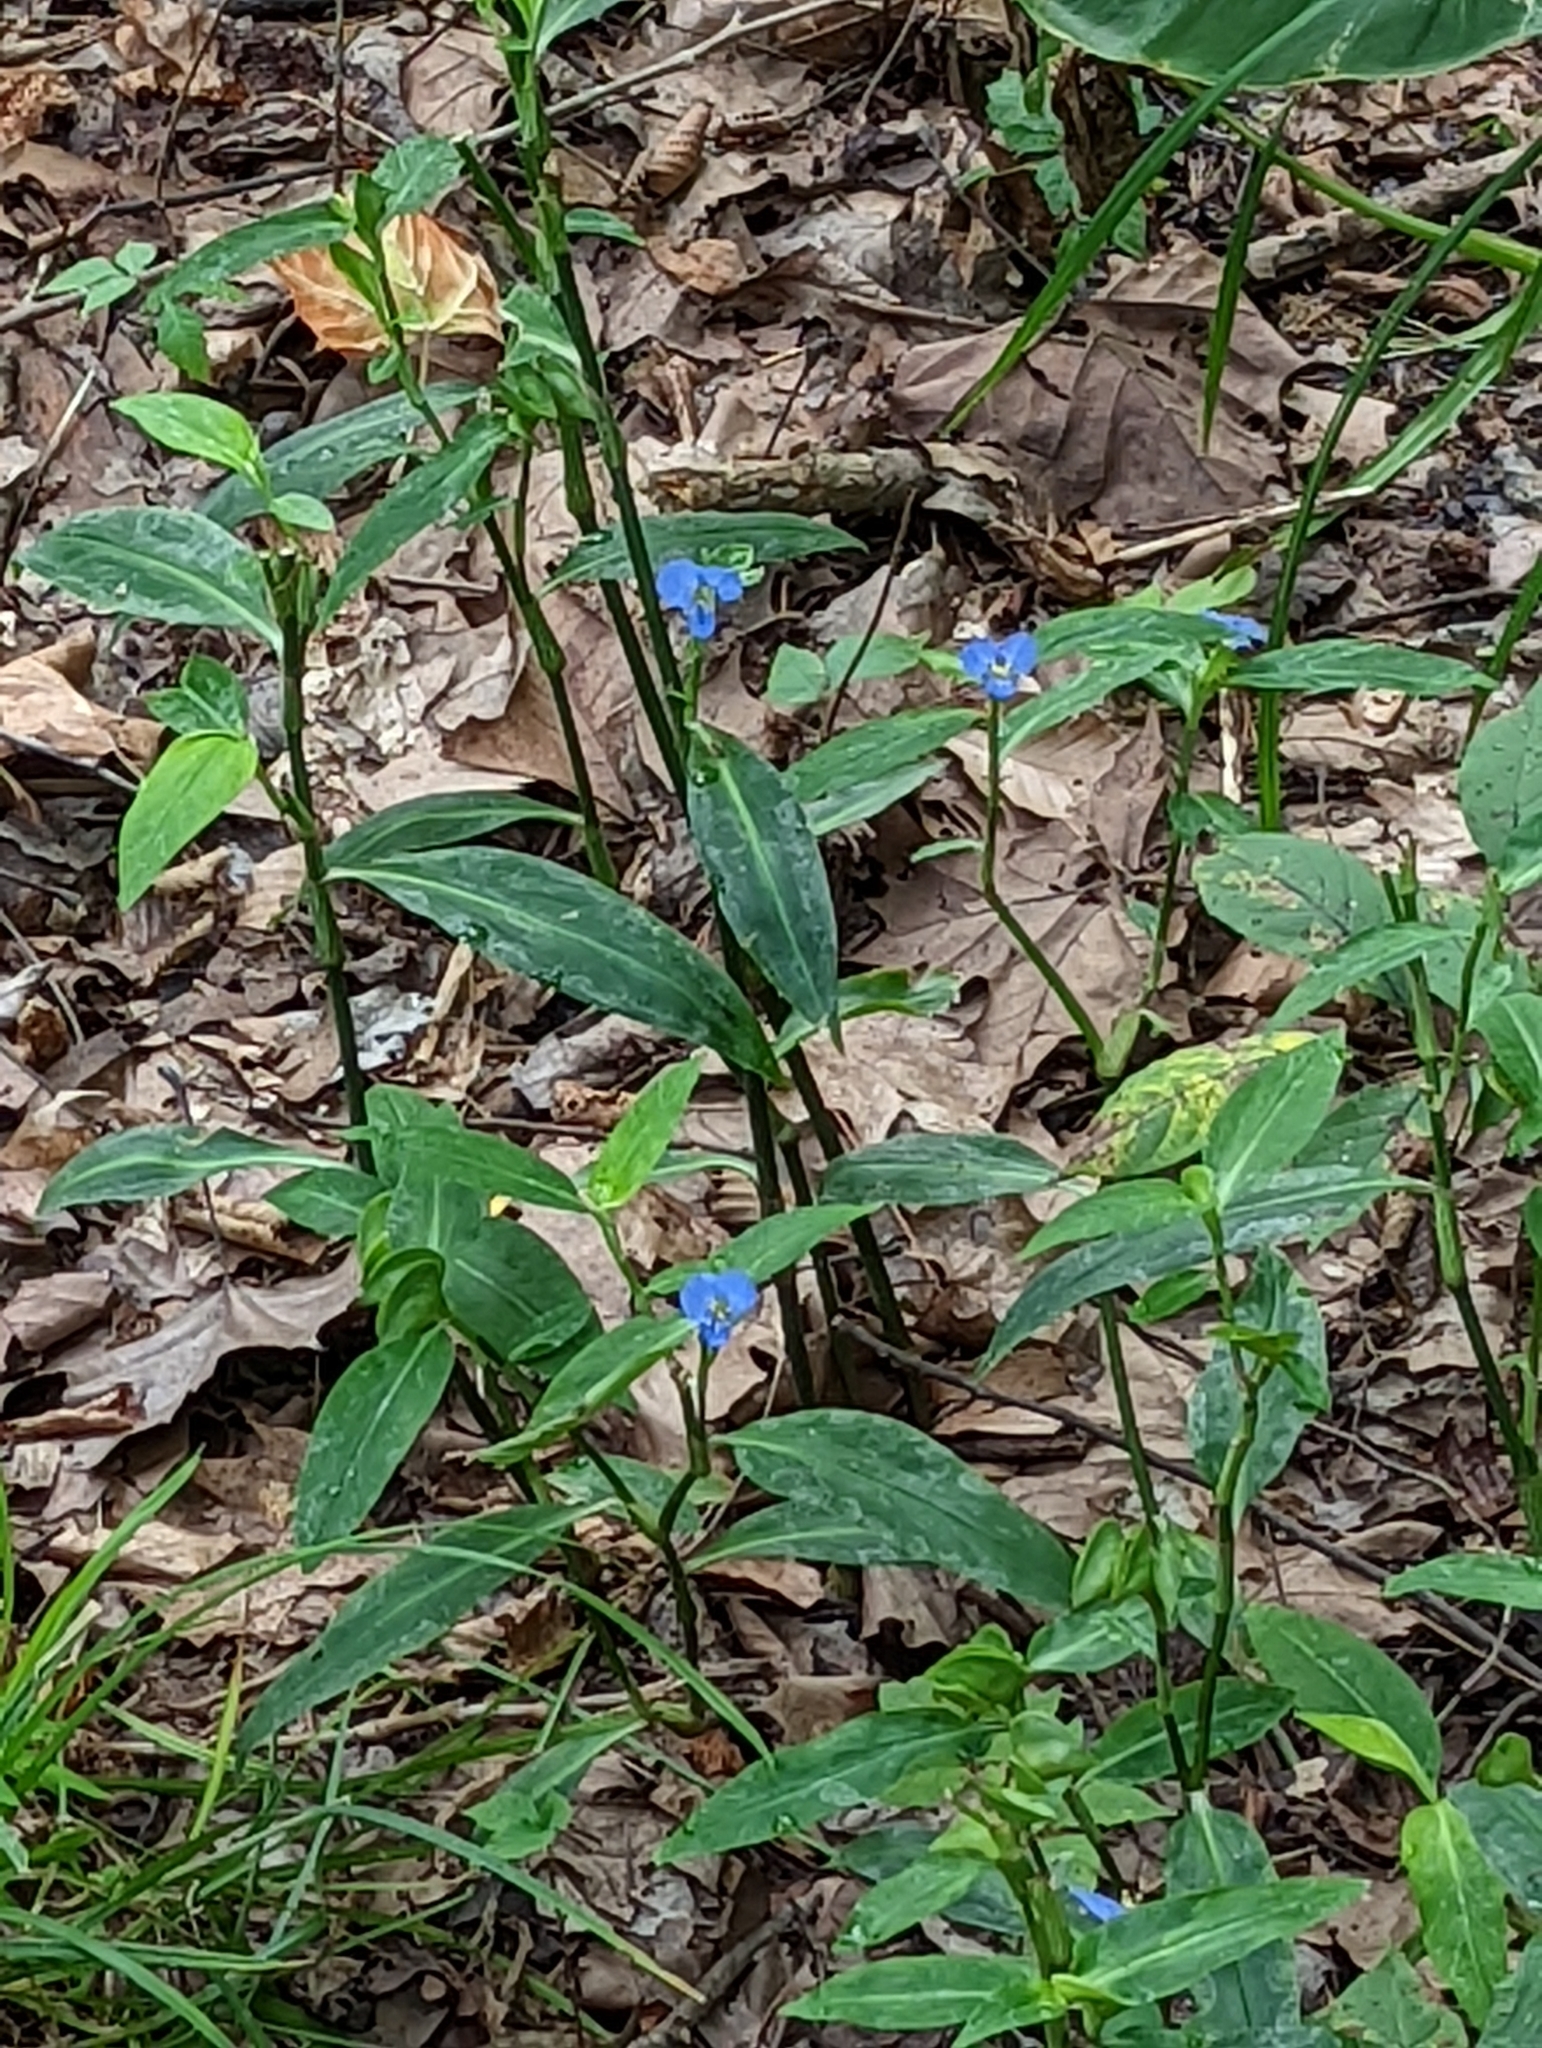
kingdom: Plantae
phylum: Tracheophyta
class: Liliopsida
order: Commelinales
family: Commelinaceae
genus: Commelina
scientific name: Commelina virginica
